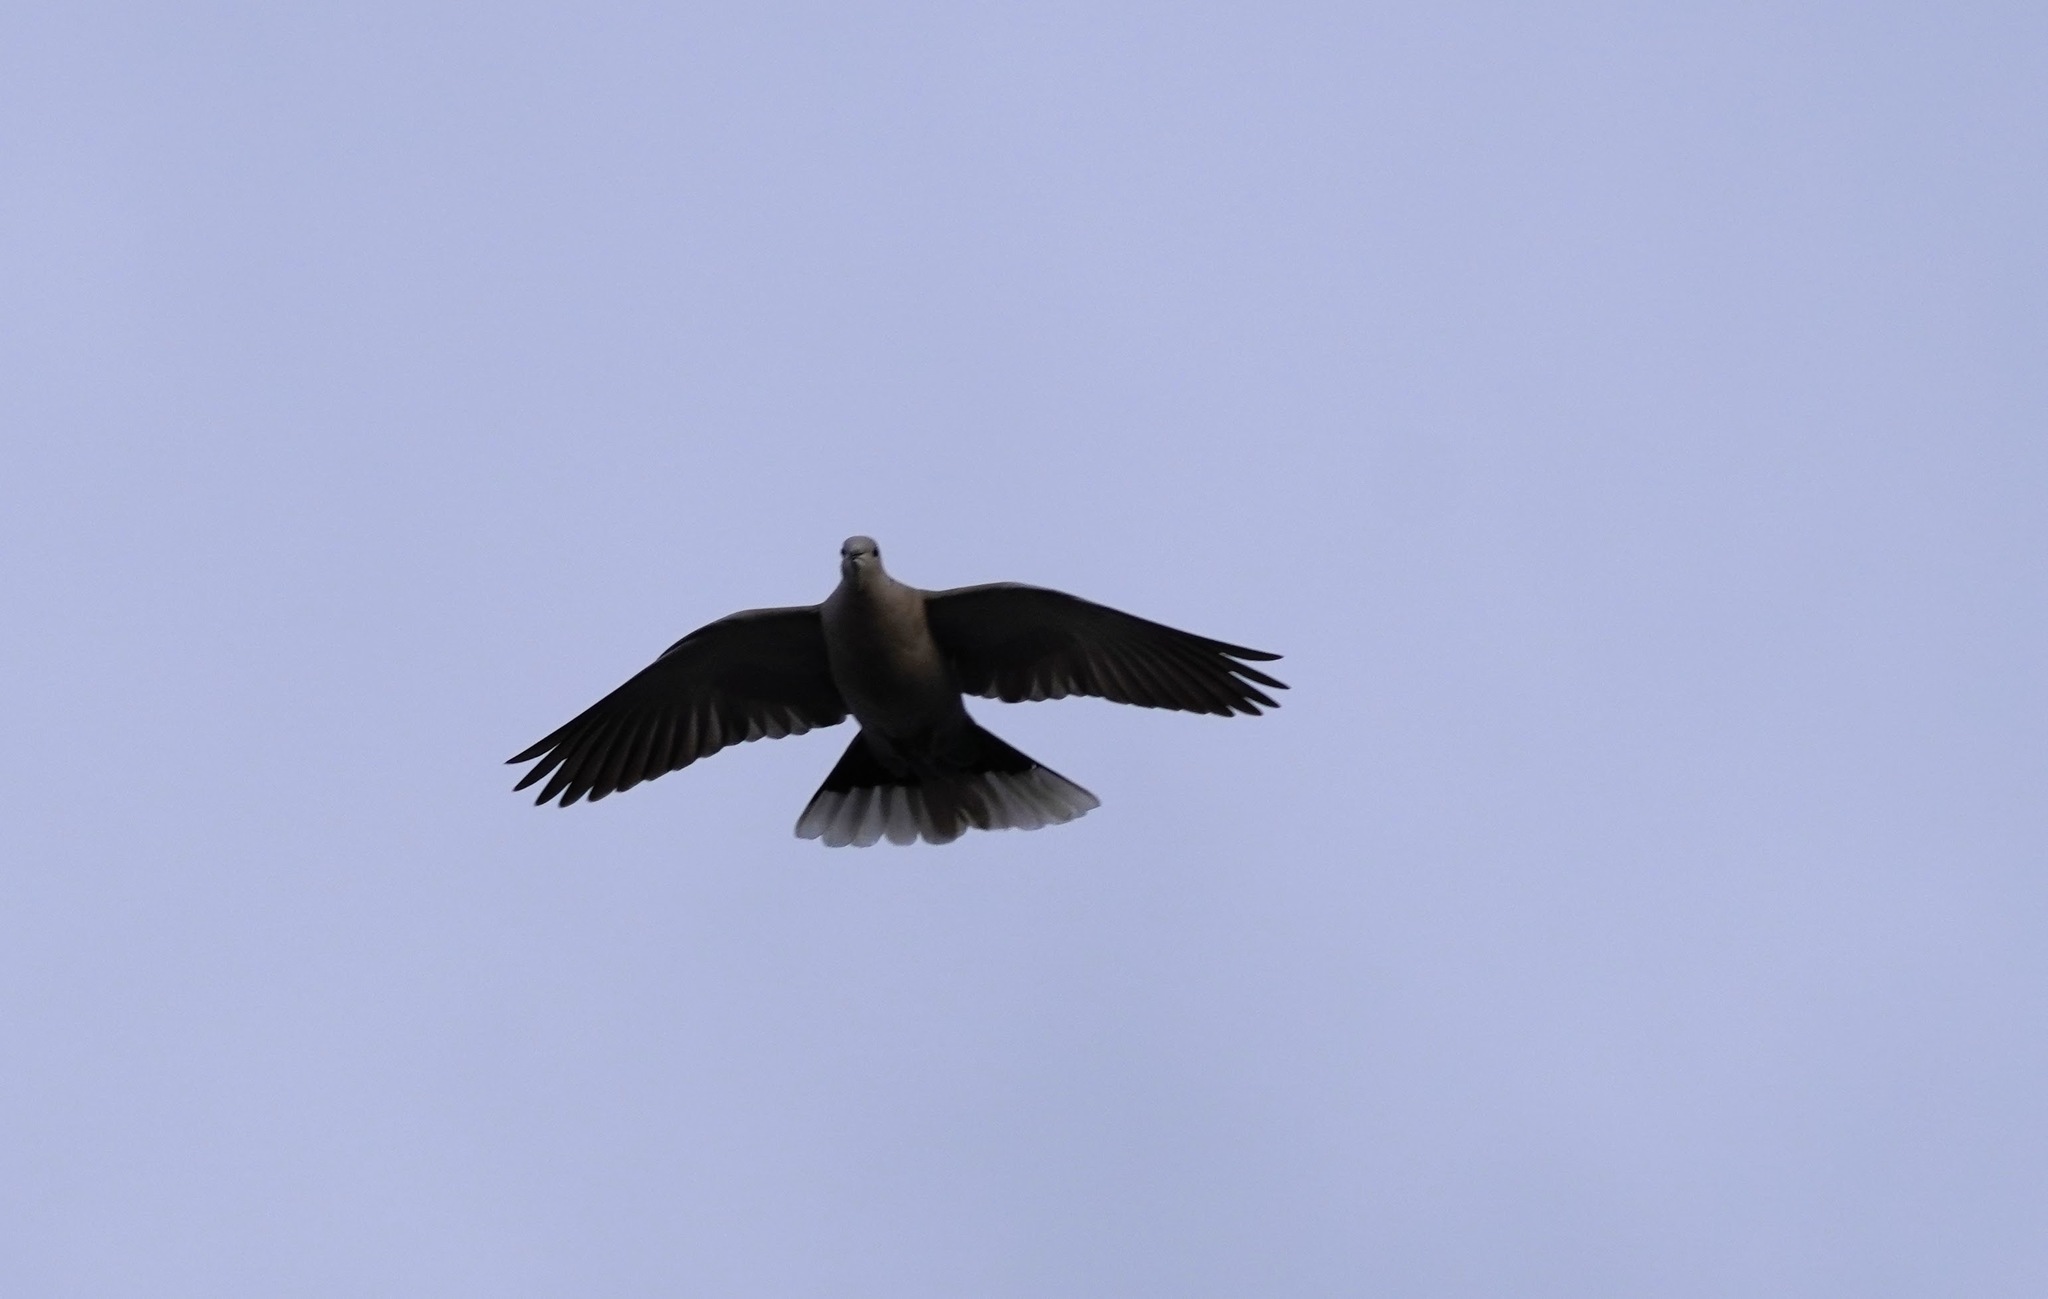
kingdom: Animalia
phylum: Chordata
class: Aves
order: Columbiformes
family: Columbidae
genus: Streptopelia
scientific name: Streptopelia decaocto
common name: Eurasian collared dove
